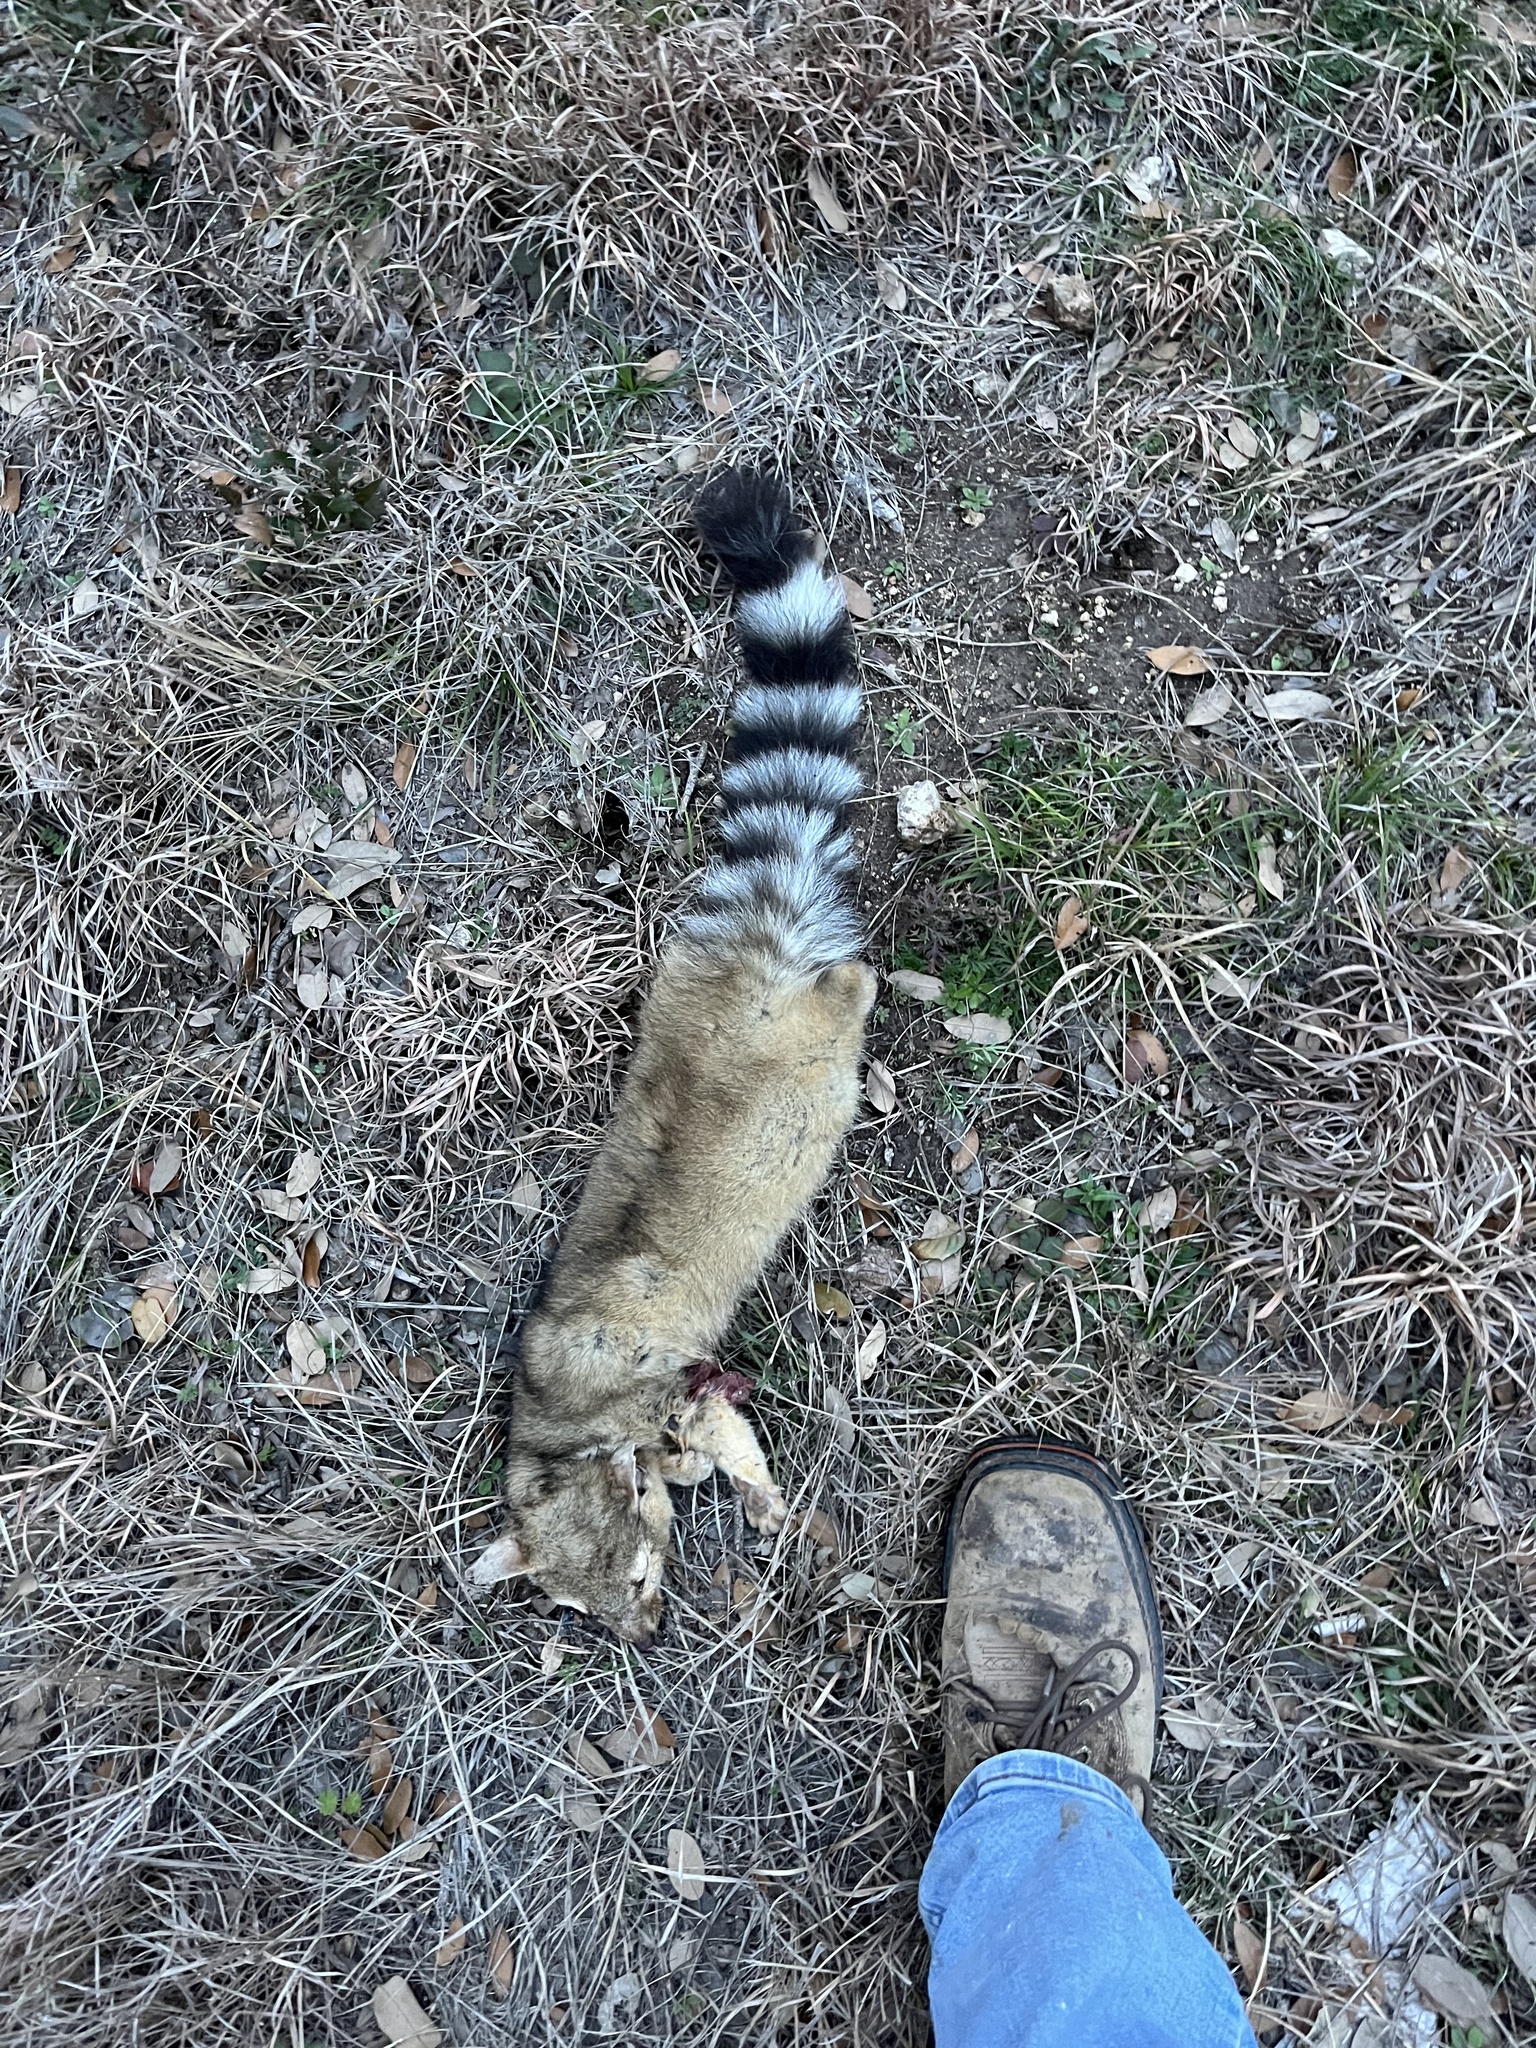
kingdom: Animalia
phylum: Chordata
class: Mammalia
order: Carnivora
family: Procyonidae
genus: Bassariscus
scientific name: Bassariscus astutus
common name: Ringtail
